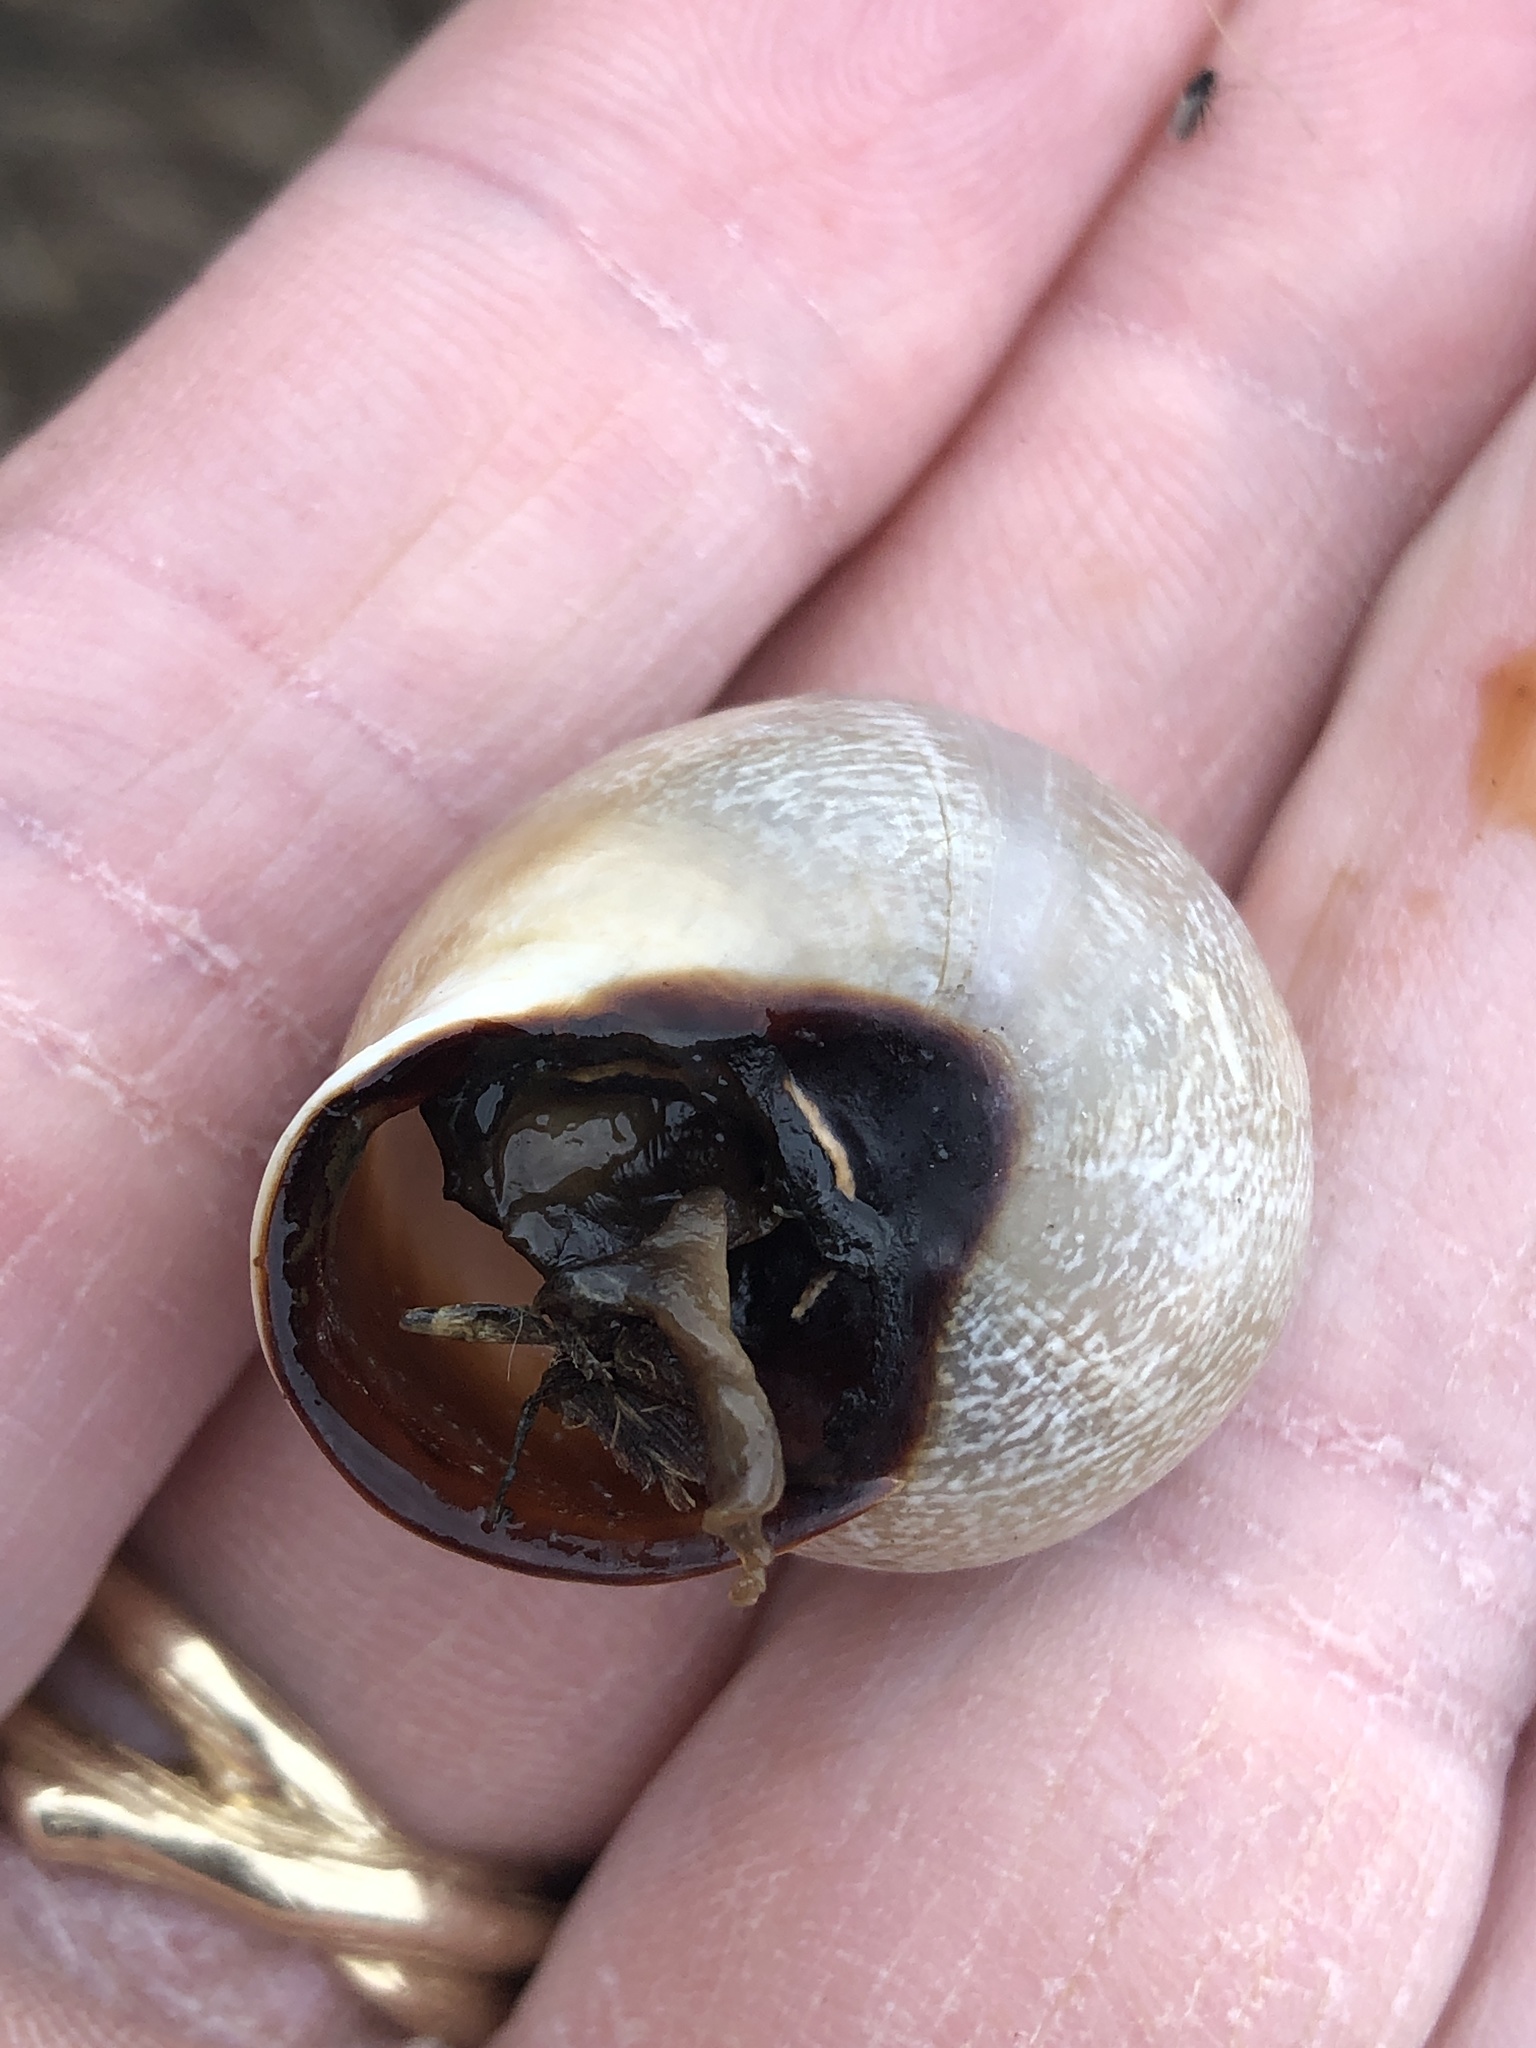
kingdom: Animalia
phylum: Mollusca
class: Gastropoda
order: Stylommatophora
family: Helicidae
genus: Otala
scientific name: Otala lactea
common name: Milk snail
